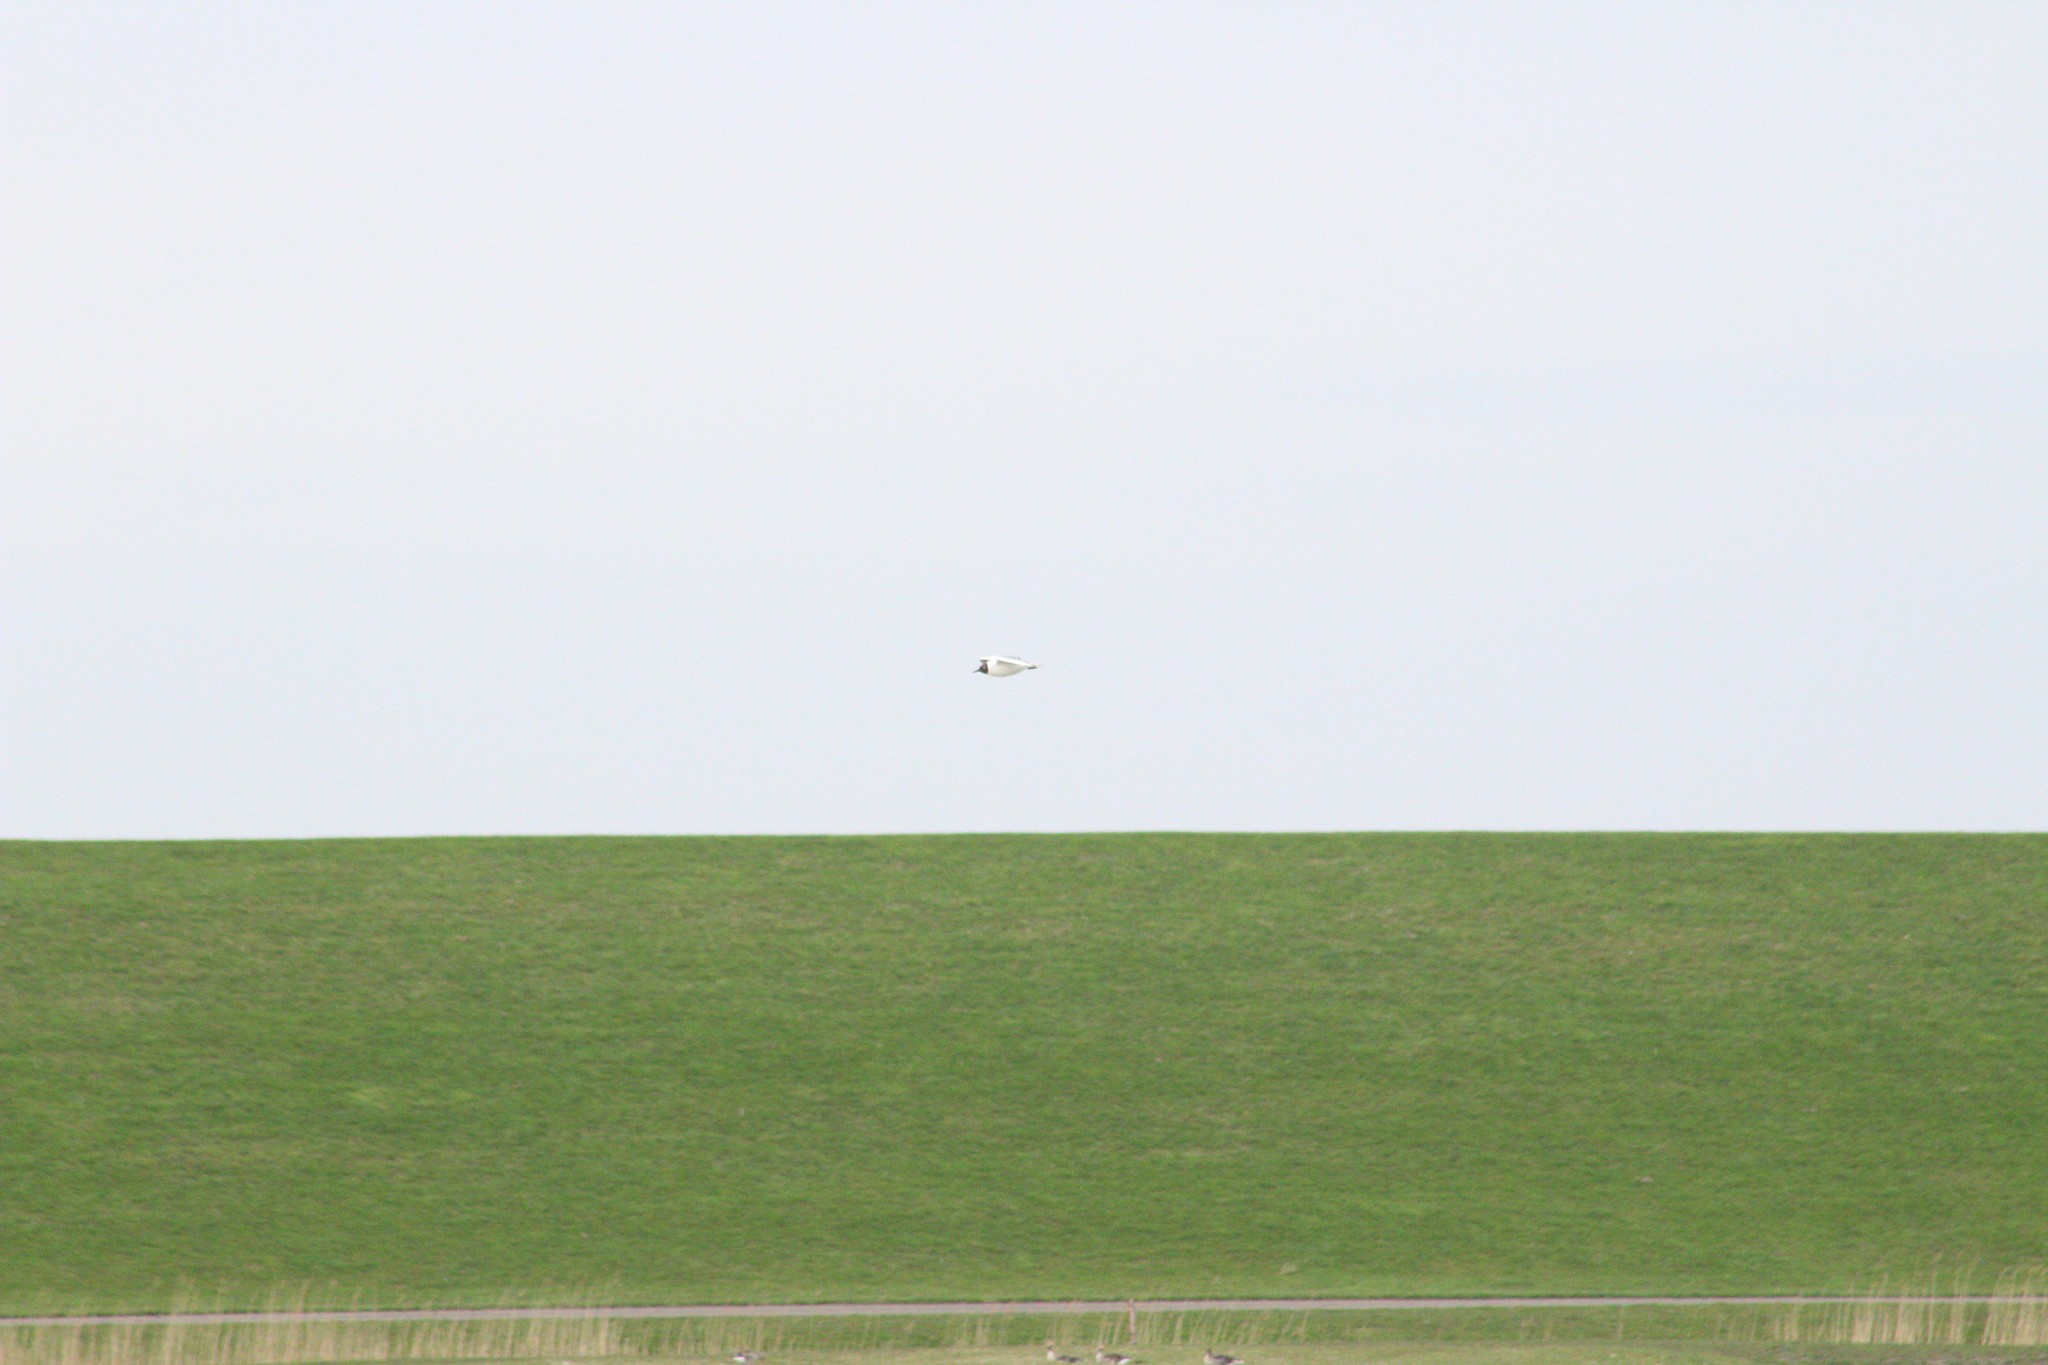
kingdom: Animalia
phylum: Chordata
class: Aves
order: Charadriiformes
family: Laridae
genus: Chroicocephalus
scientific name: Chroicocephalus ridibundus
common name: Black-headed gull
